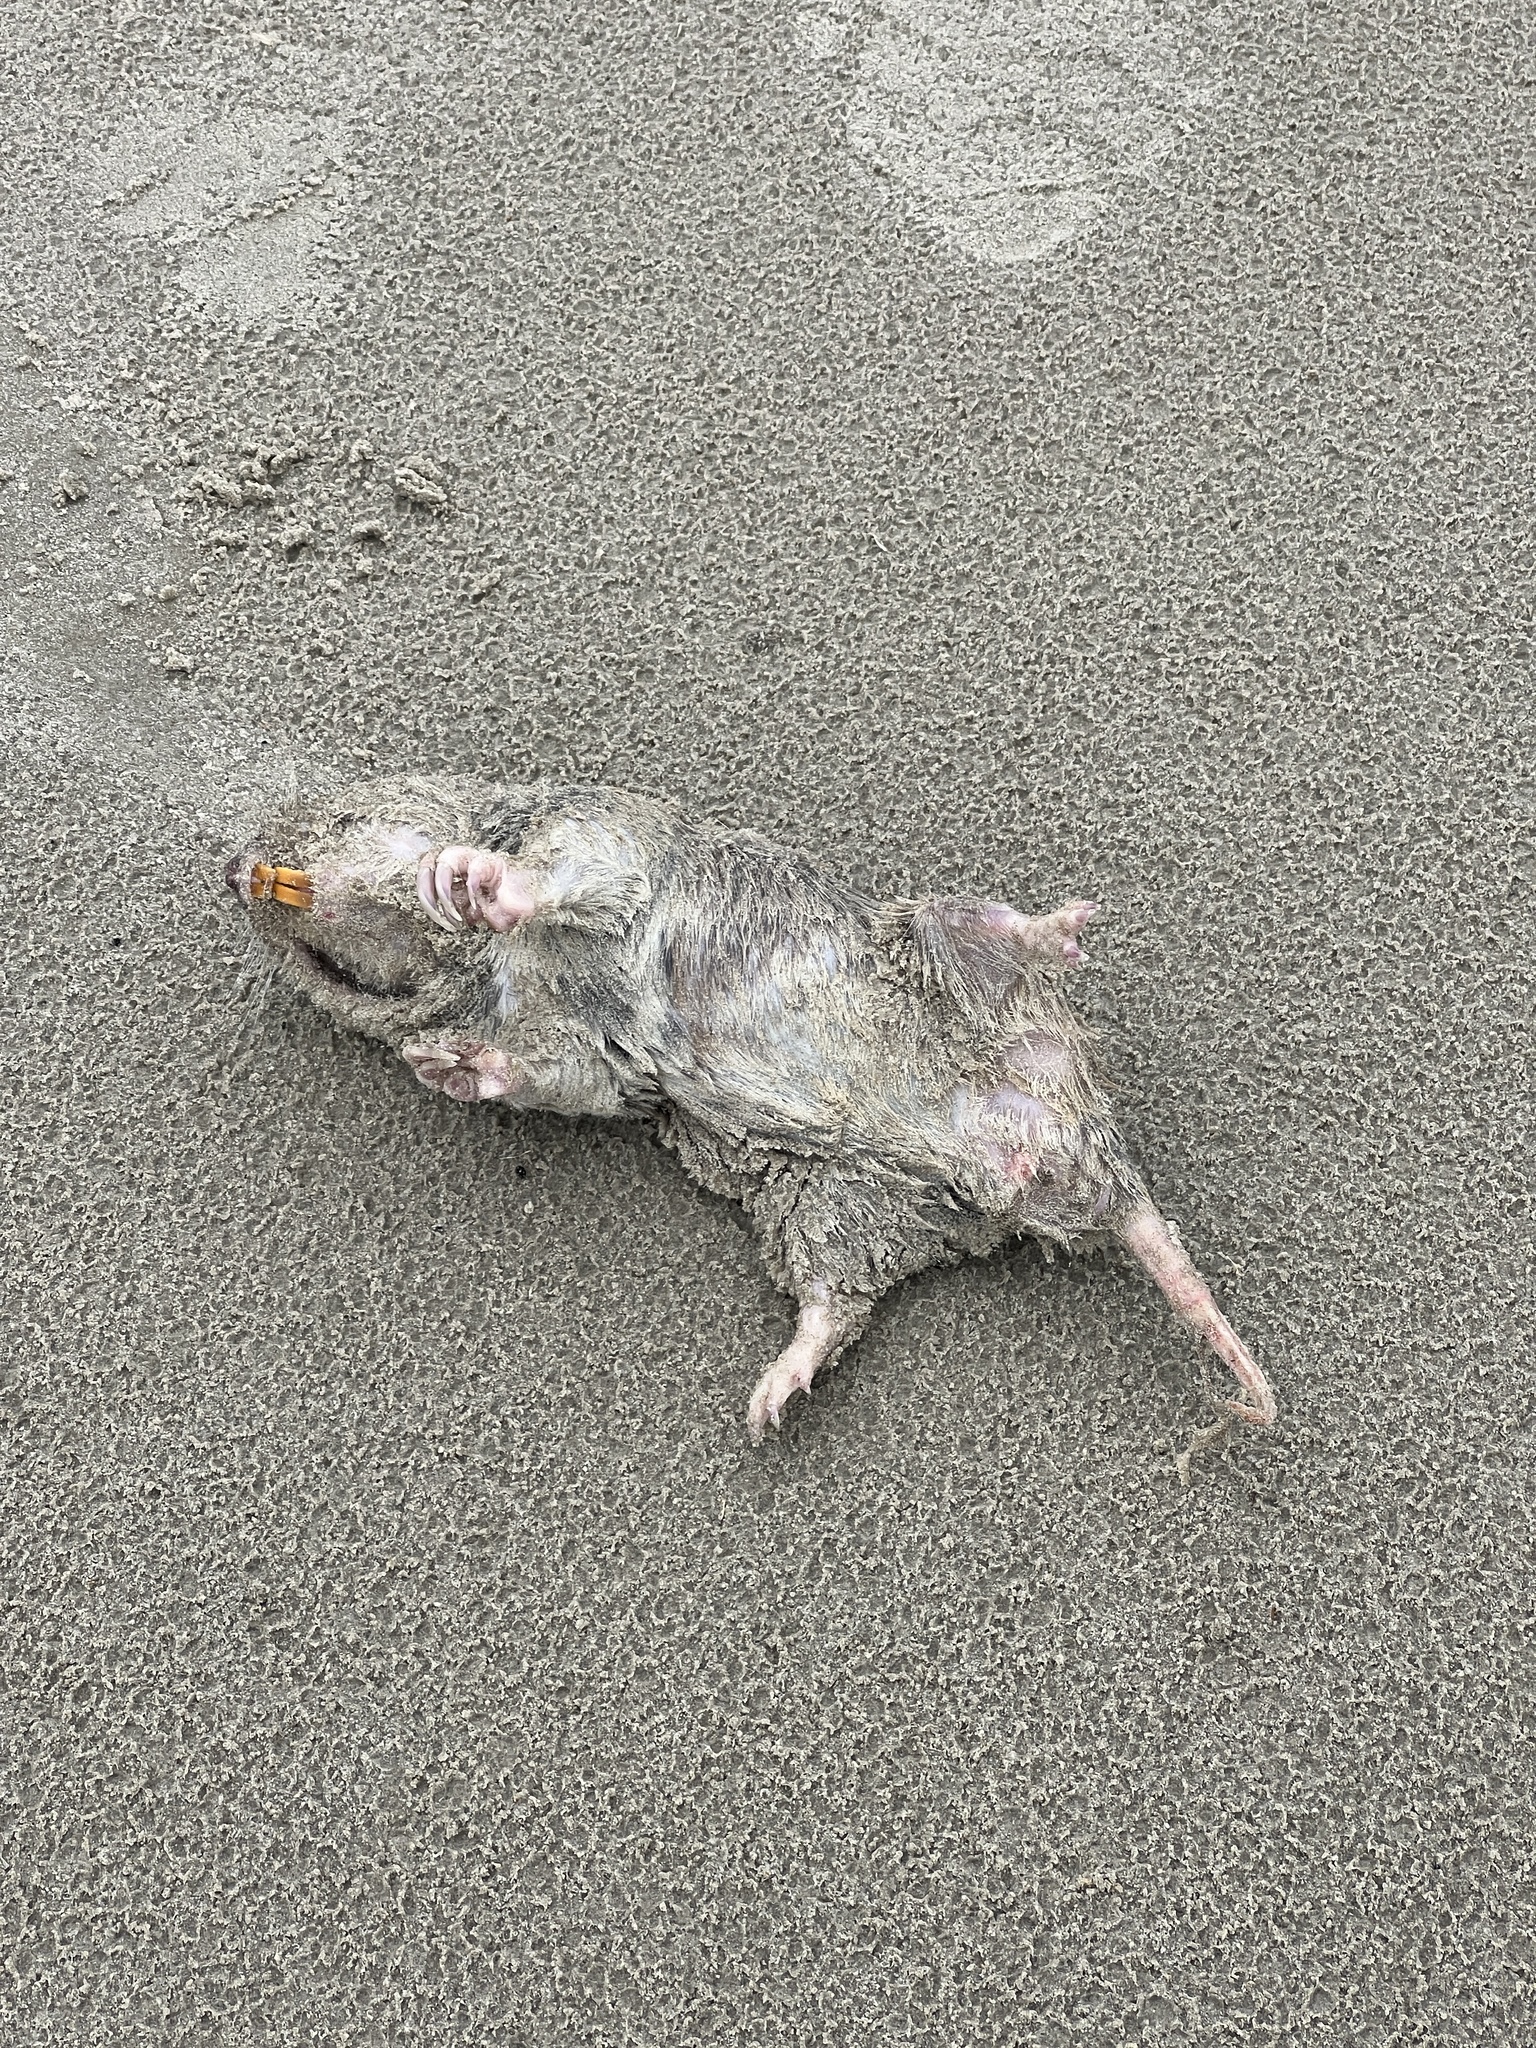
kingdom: Animalia
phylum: Chordata
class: Mammalia
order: Rodentia
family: Geomyidae
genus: Geomys
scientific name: Geomys personatus
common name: Texas pocket gopher
